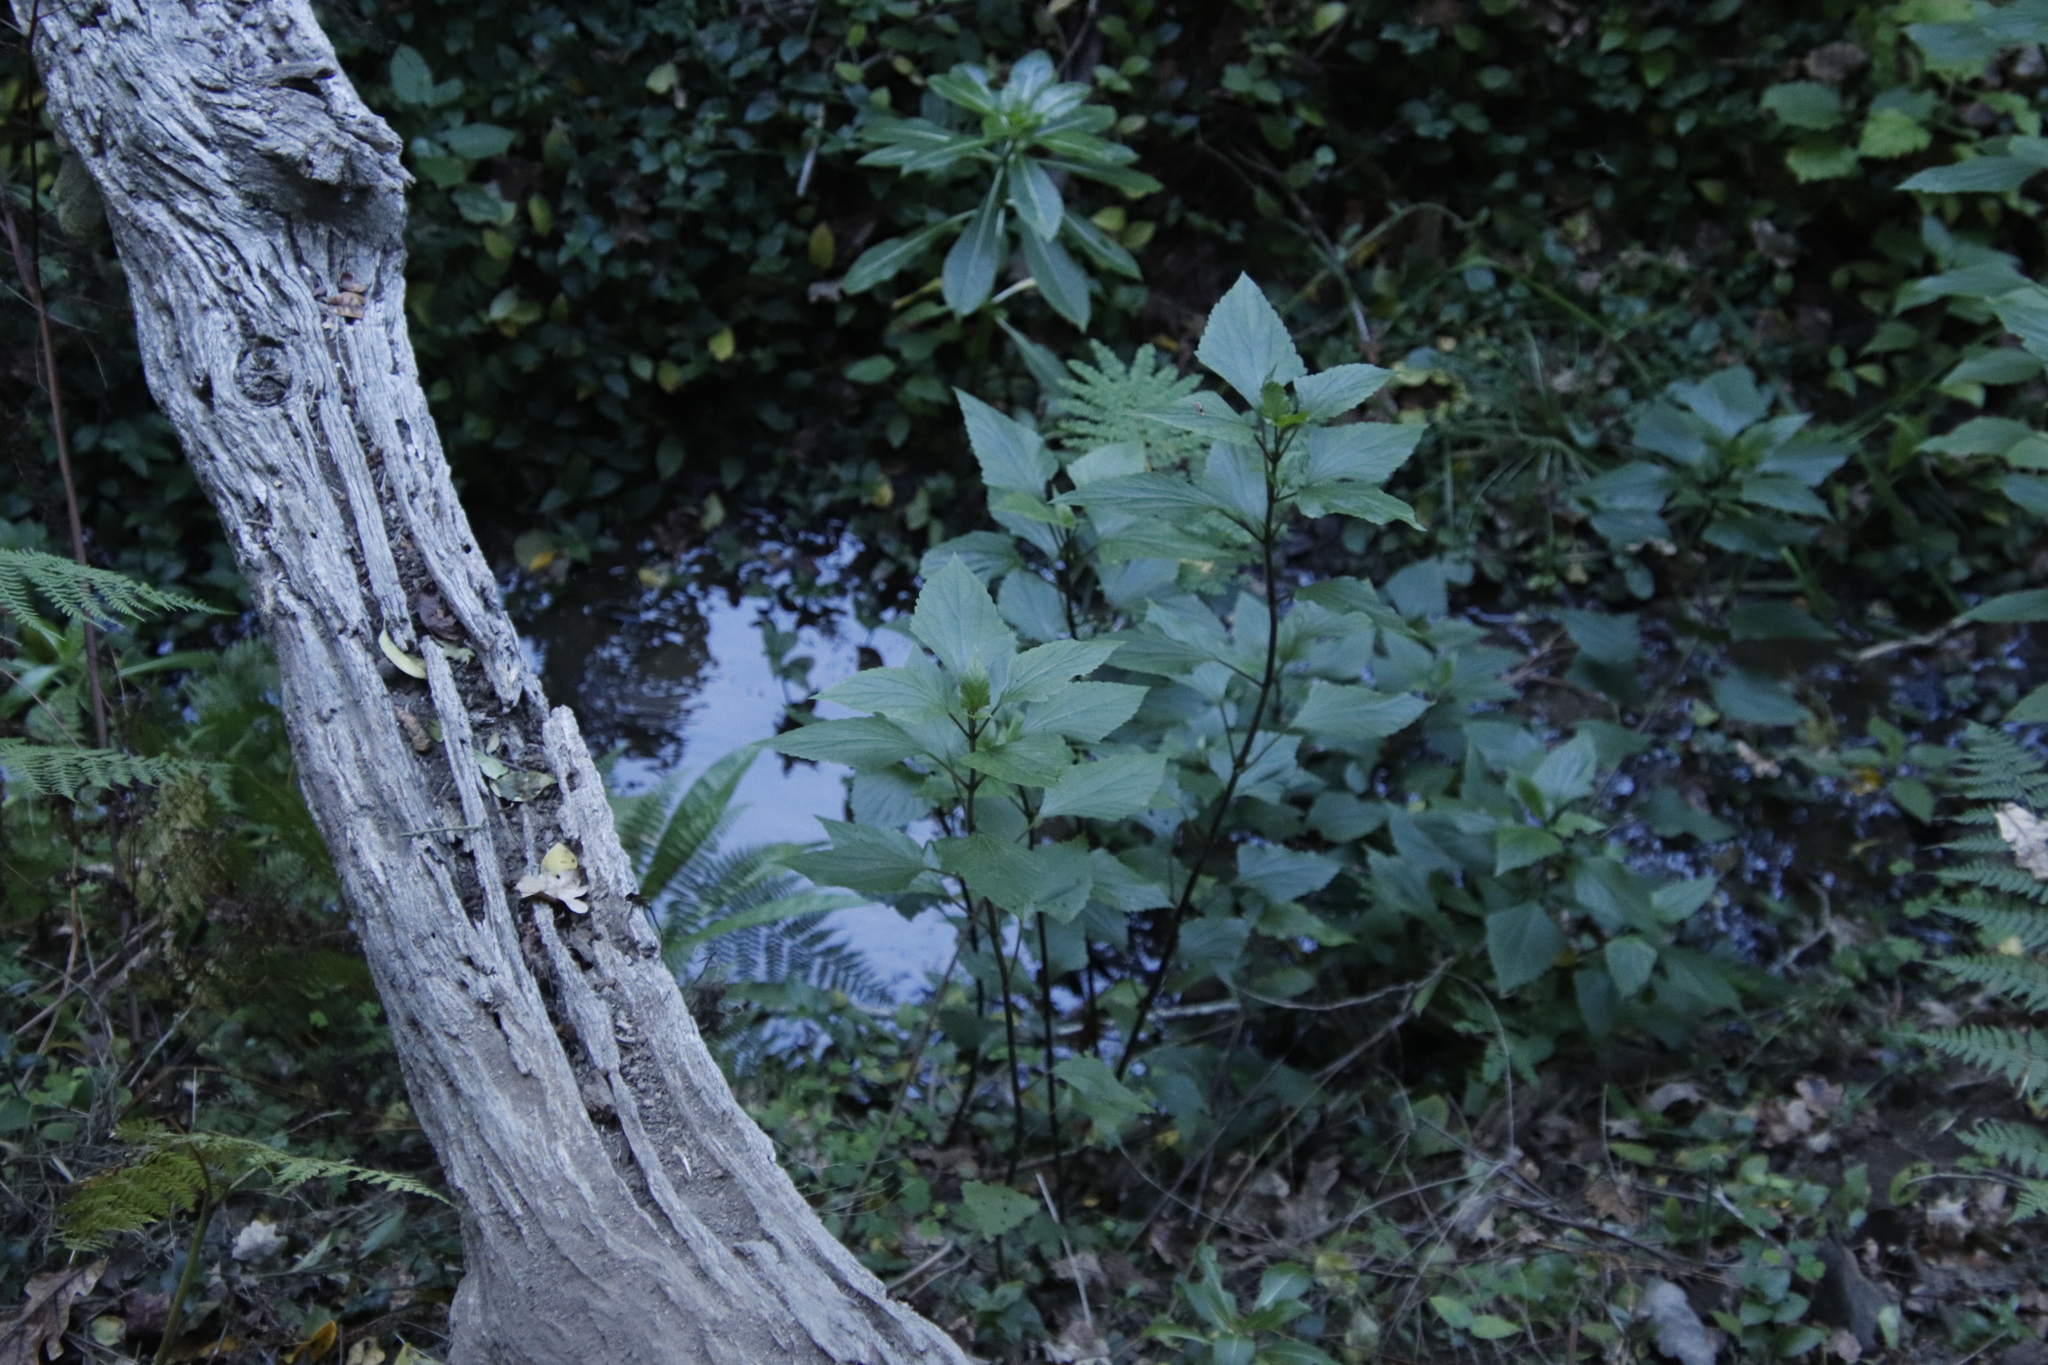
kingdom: Plantae
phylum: Tracheophyta
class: Magnoliopsida
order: Asterales
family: Asteraceae
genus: Ageratina
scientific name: Ageratina adenophora
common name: Sticky snakeroot
